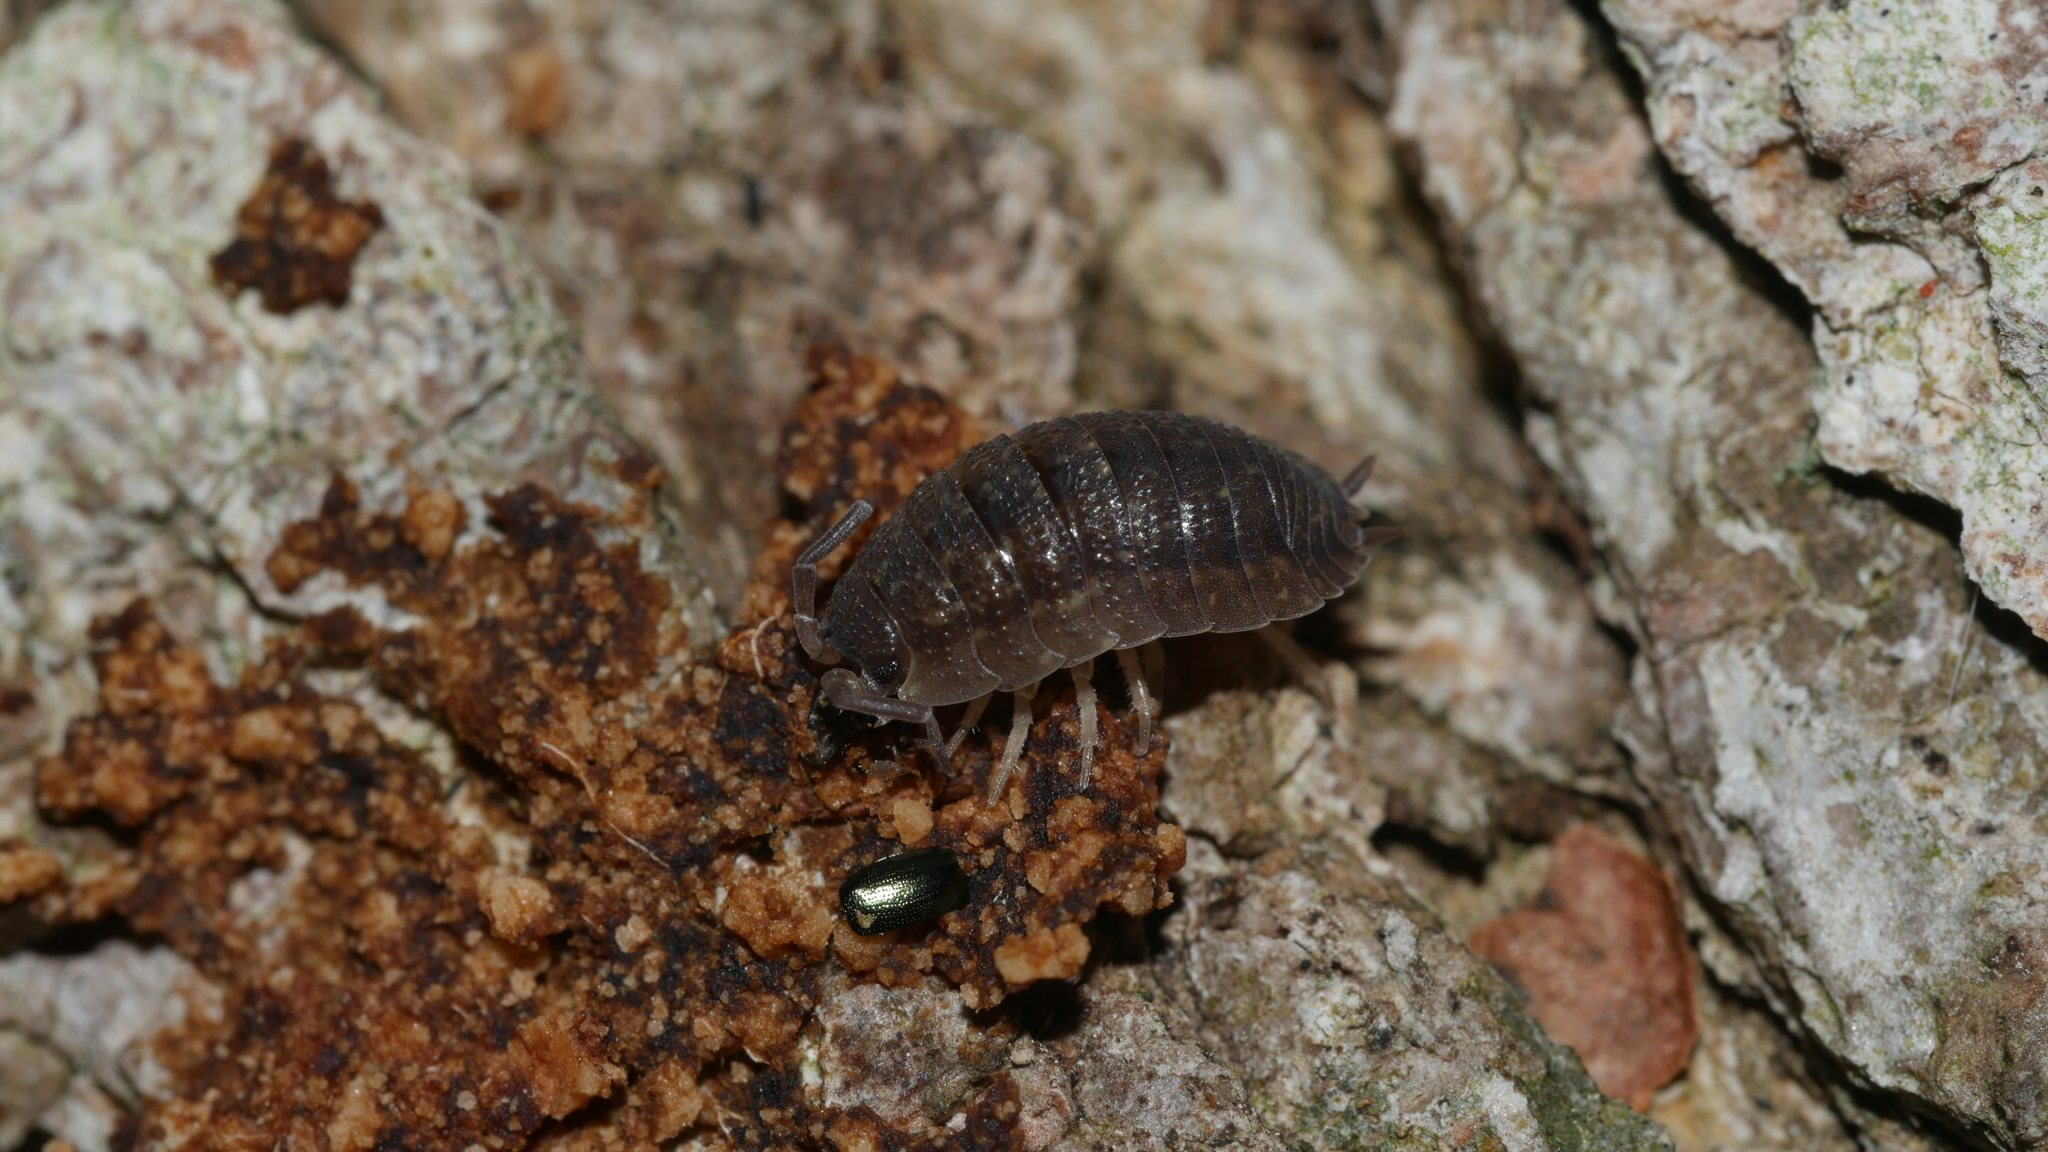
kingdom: Animalia
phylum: Arthropoda
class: Malacostraca
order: Isopoda
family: Porcellionidae
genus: Porcellio
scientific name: Porcellio scaber
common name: Common rough woodlouse
